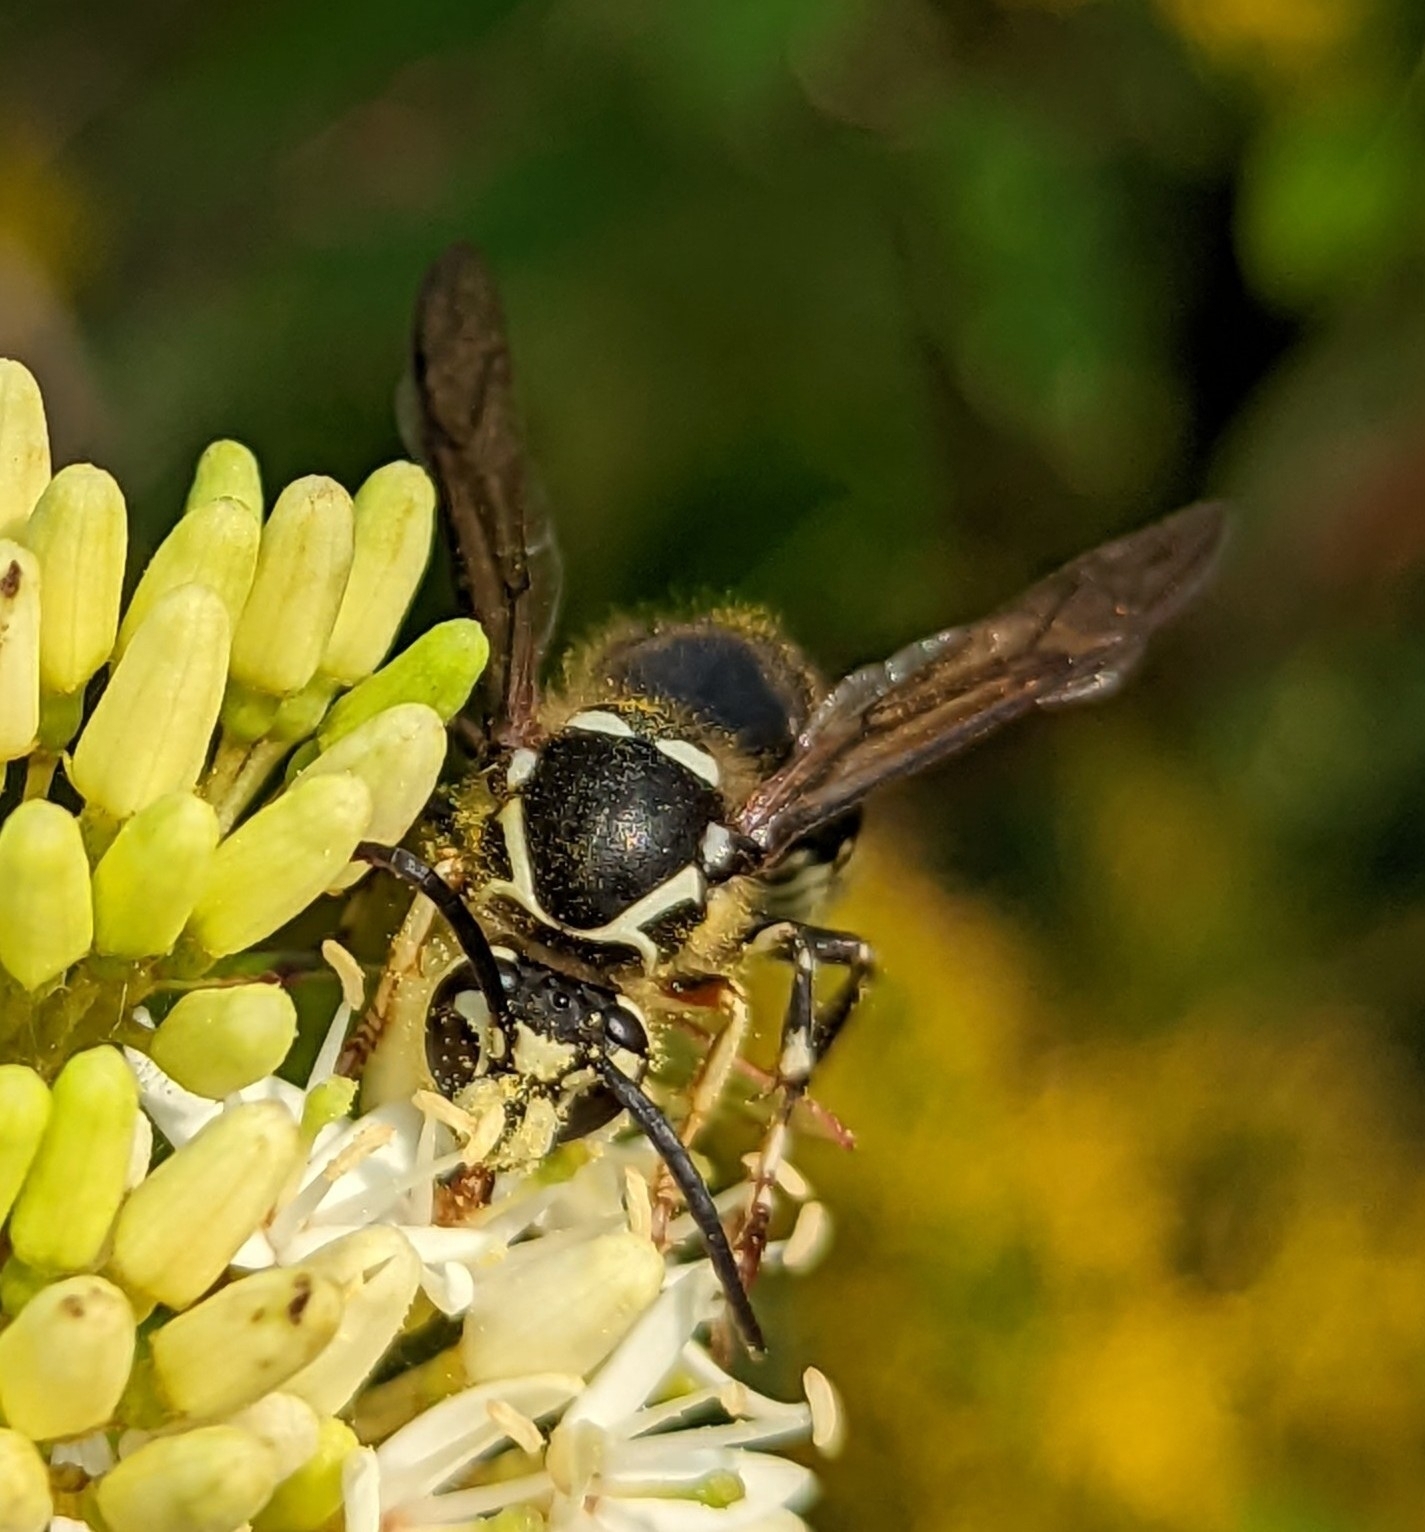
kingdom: Animalia
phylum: Arthropoda
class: Insecta
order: Hymenoptera
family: Vespidae
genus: Dolichovespula
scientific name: Dolichovespula maculata
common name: Bald-faced hornet
